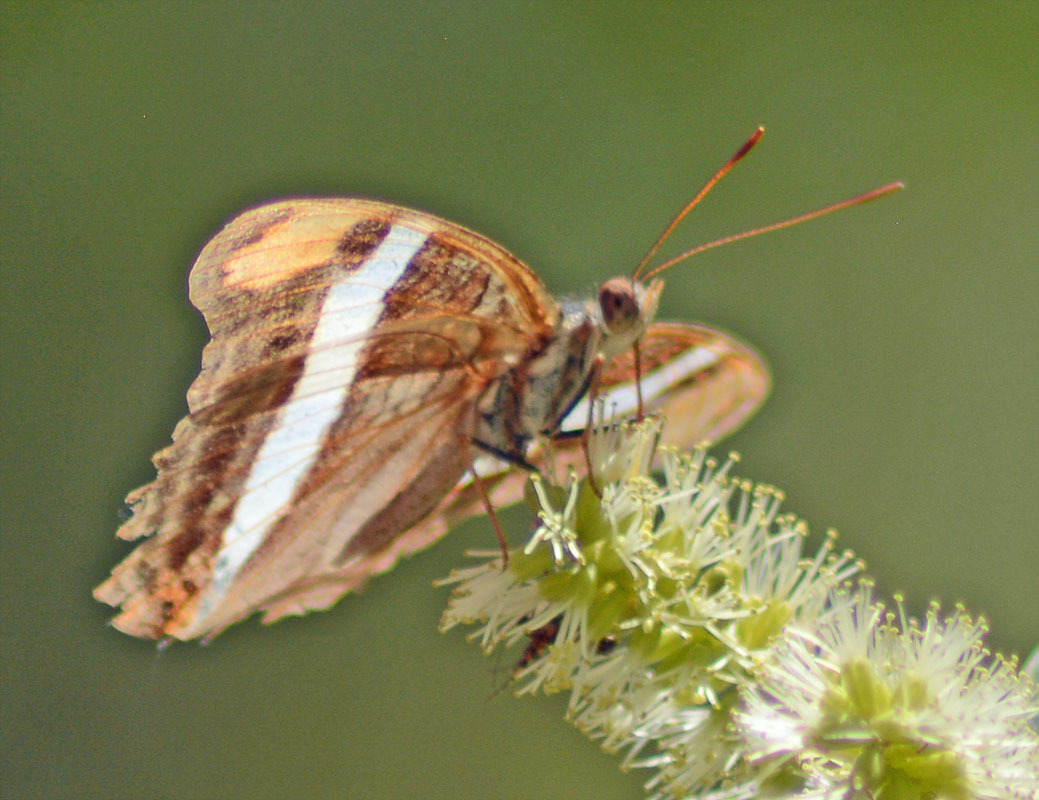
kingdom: Animalia
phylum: Arthropoda
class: Insecta
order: Lepidoptera
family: Nymphalidae
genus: Limenitis
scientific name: Limenitis fessonia
